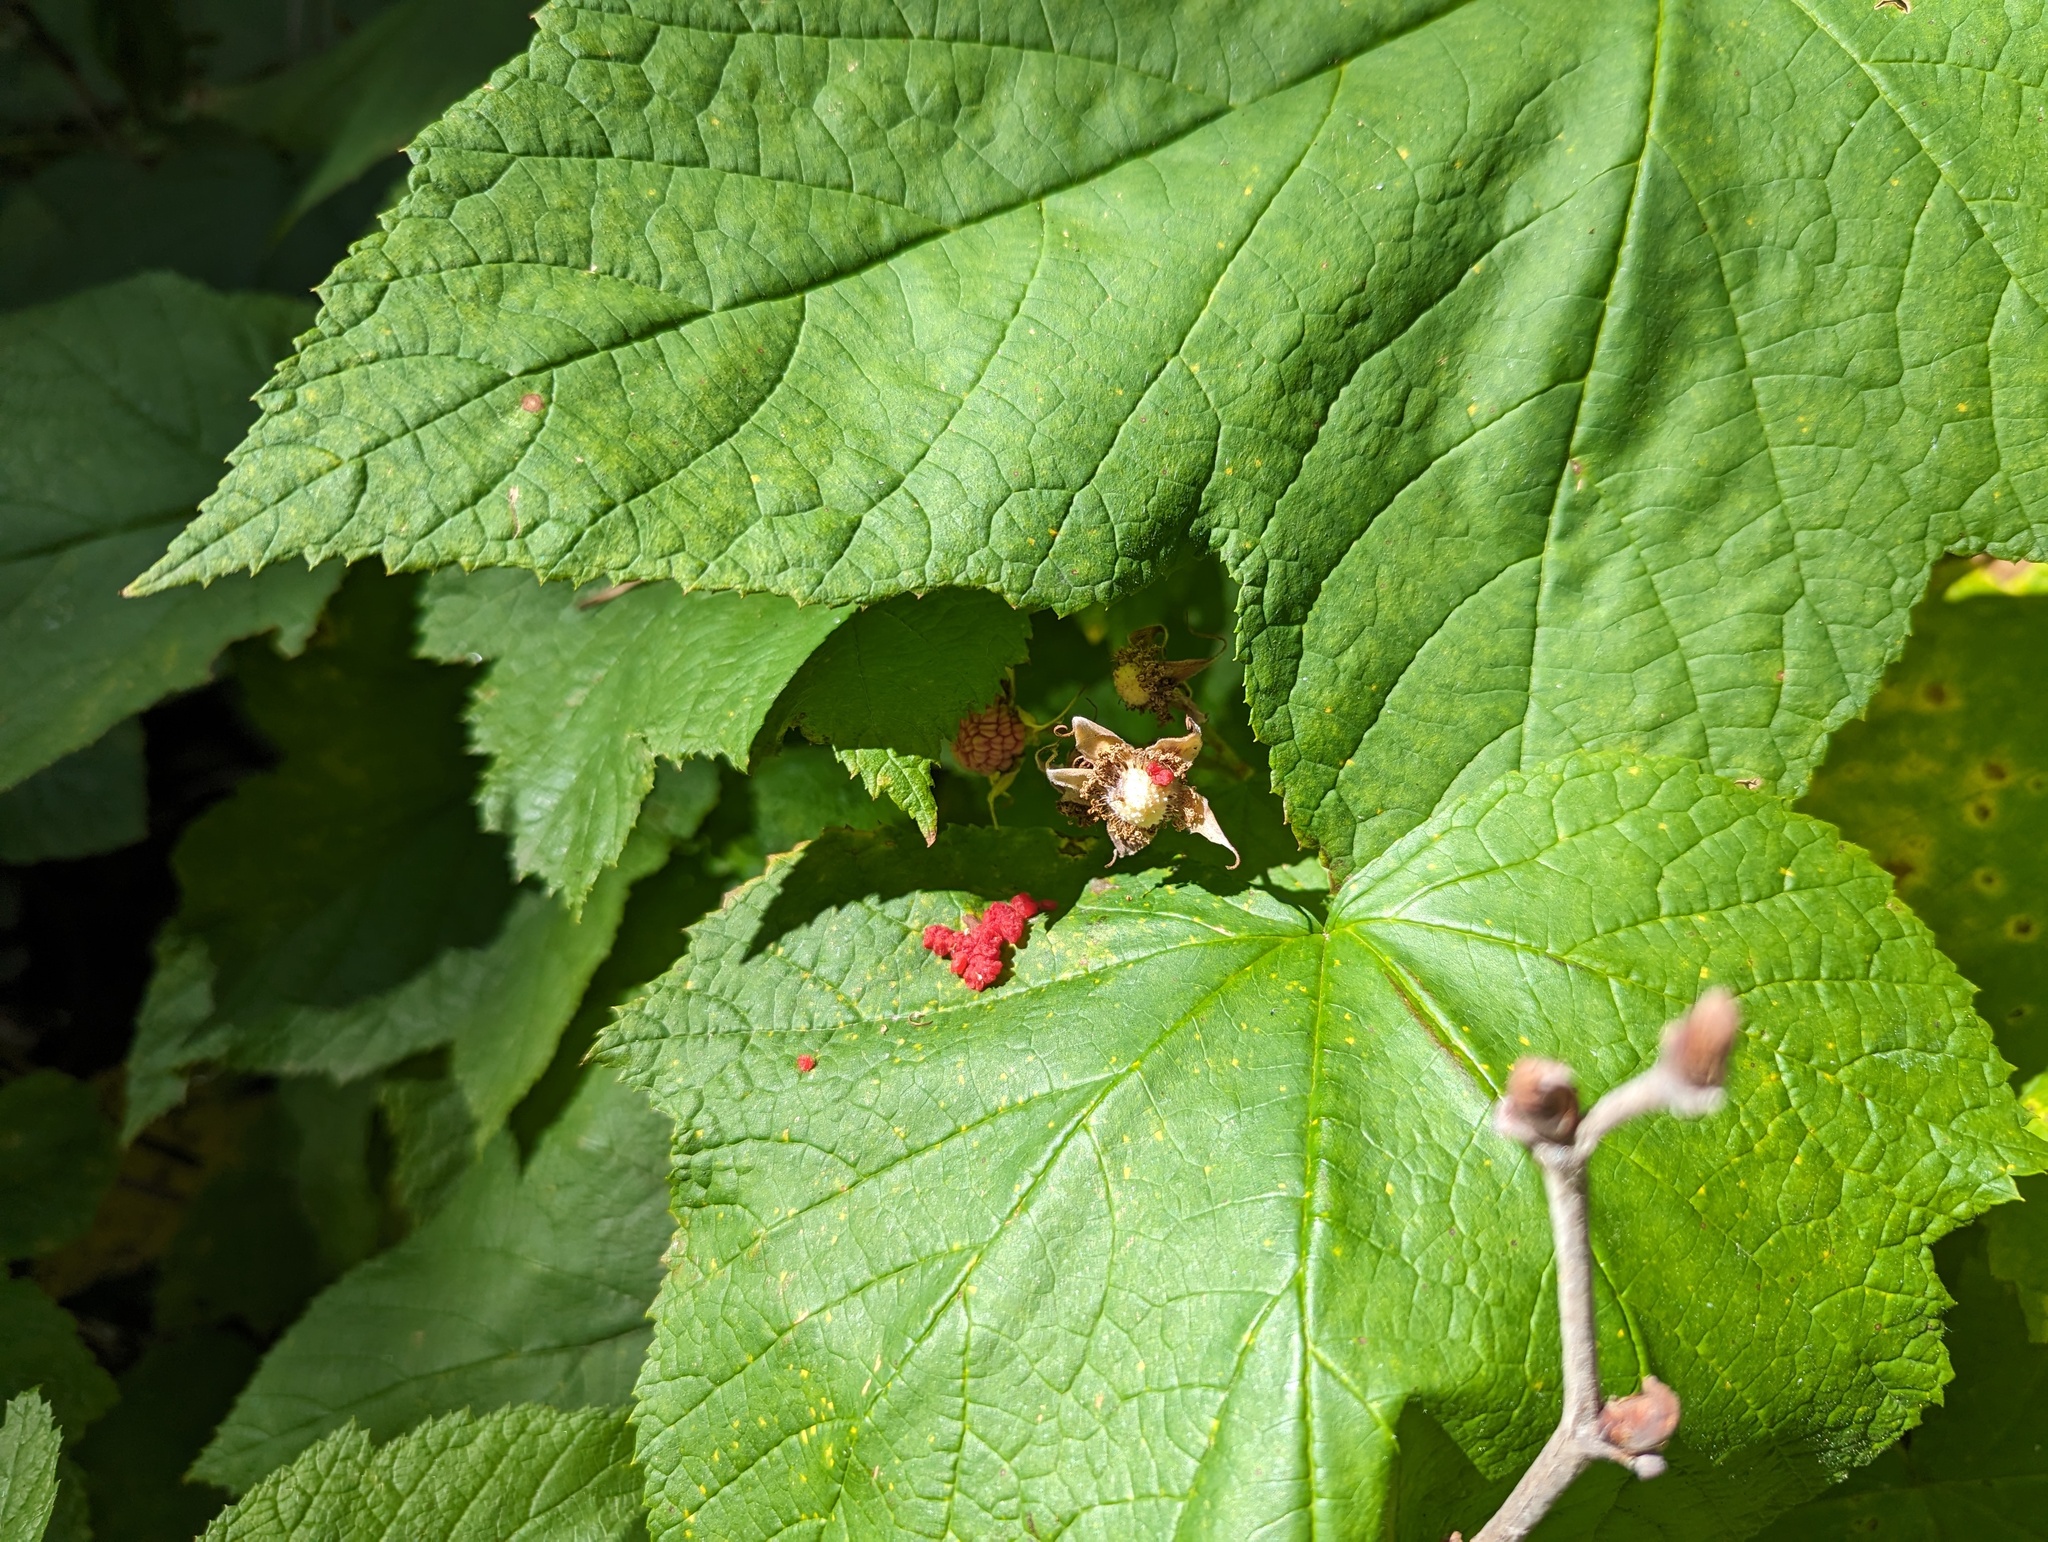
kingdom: Plantae
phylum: Tracheophyta
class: Magnoliopsida
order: Rosales
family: Rosaceae
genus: Rubus
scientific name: Rubus parviflorus
